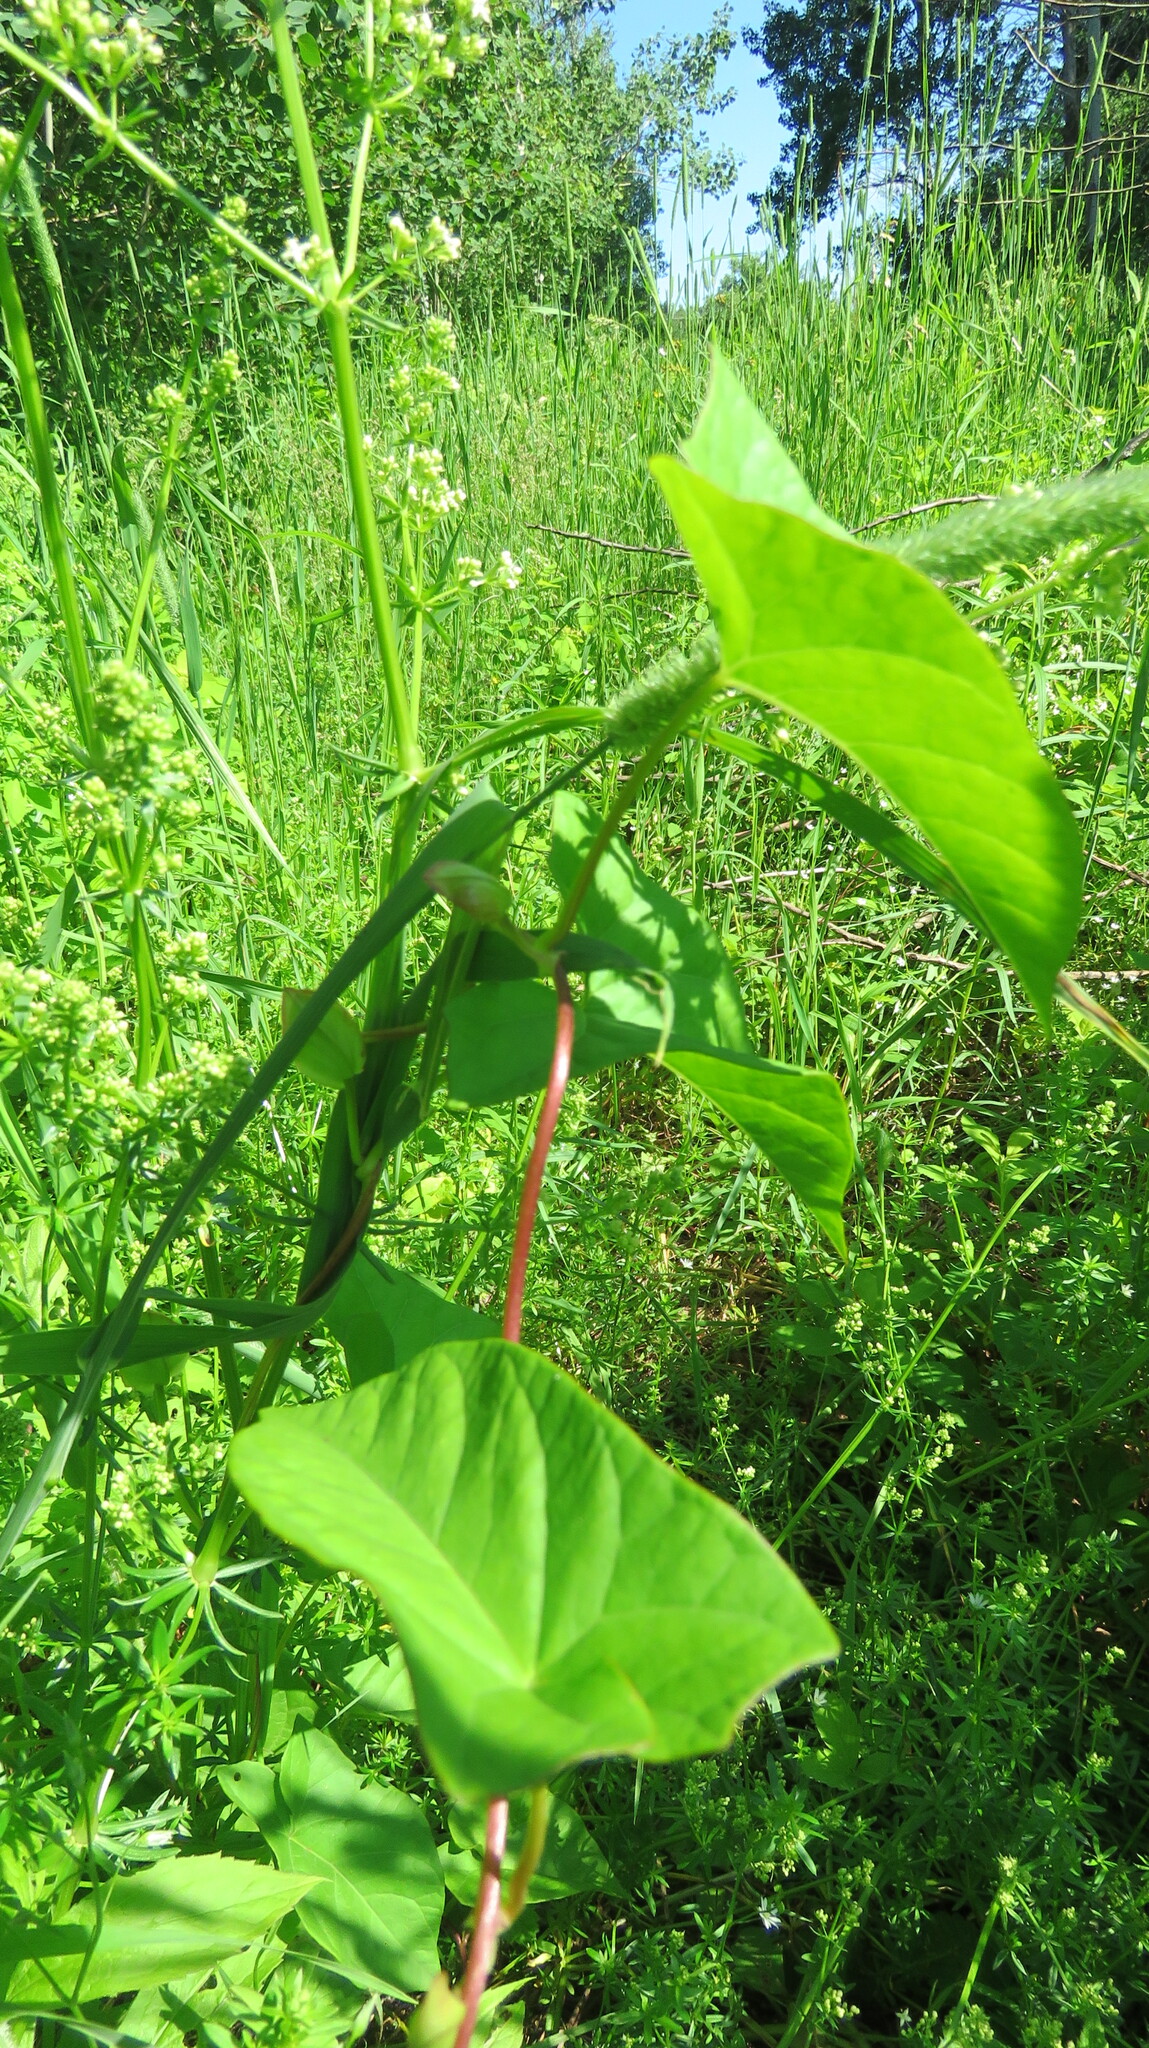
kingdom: Plantae
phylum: Tracheophyta
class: Magnoliopsida
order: Solanales
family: Convolvulaceae
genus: Calystegia
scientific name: Calystegia sepium
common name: Hedge bindweed
